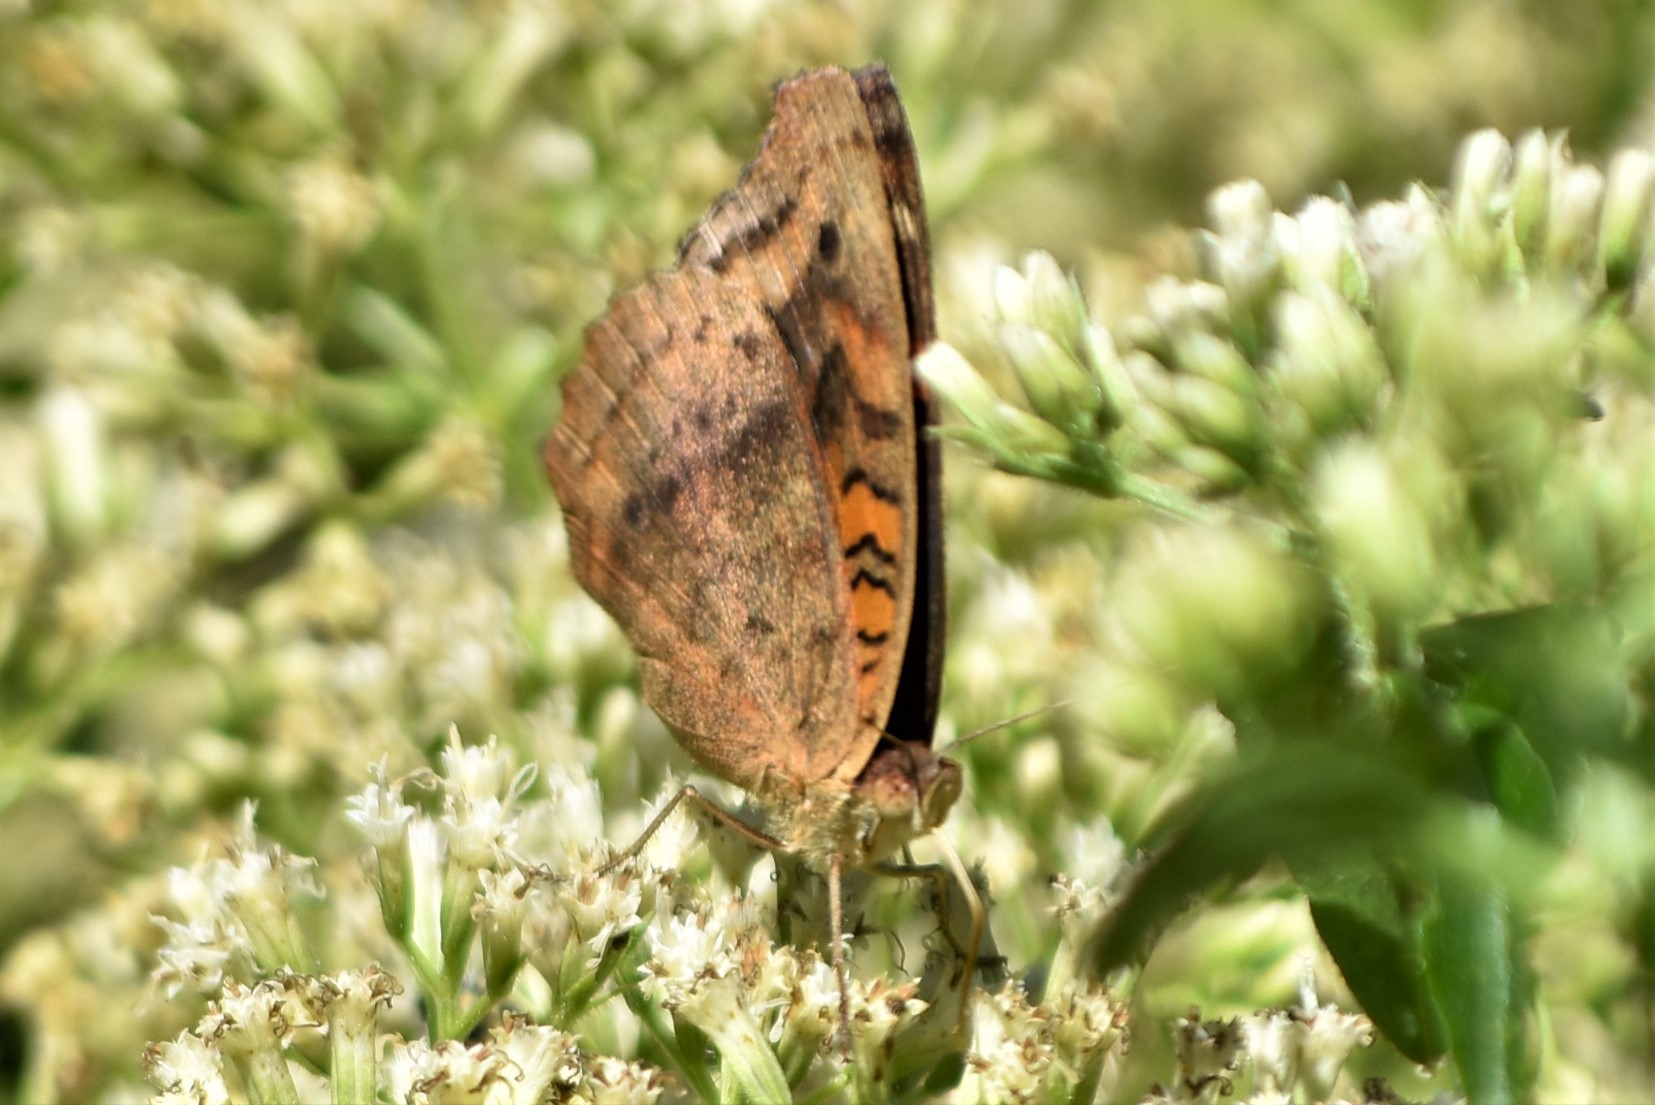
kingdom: Animalia
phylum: Arthropoda
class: Insecta
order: Lepidoptera
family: Nymphalidae
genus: Junonia
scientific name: Junonia lavinia
